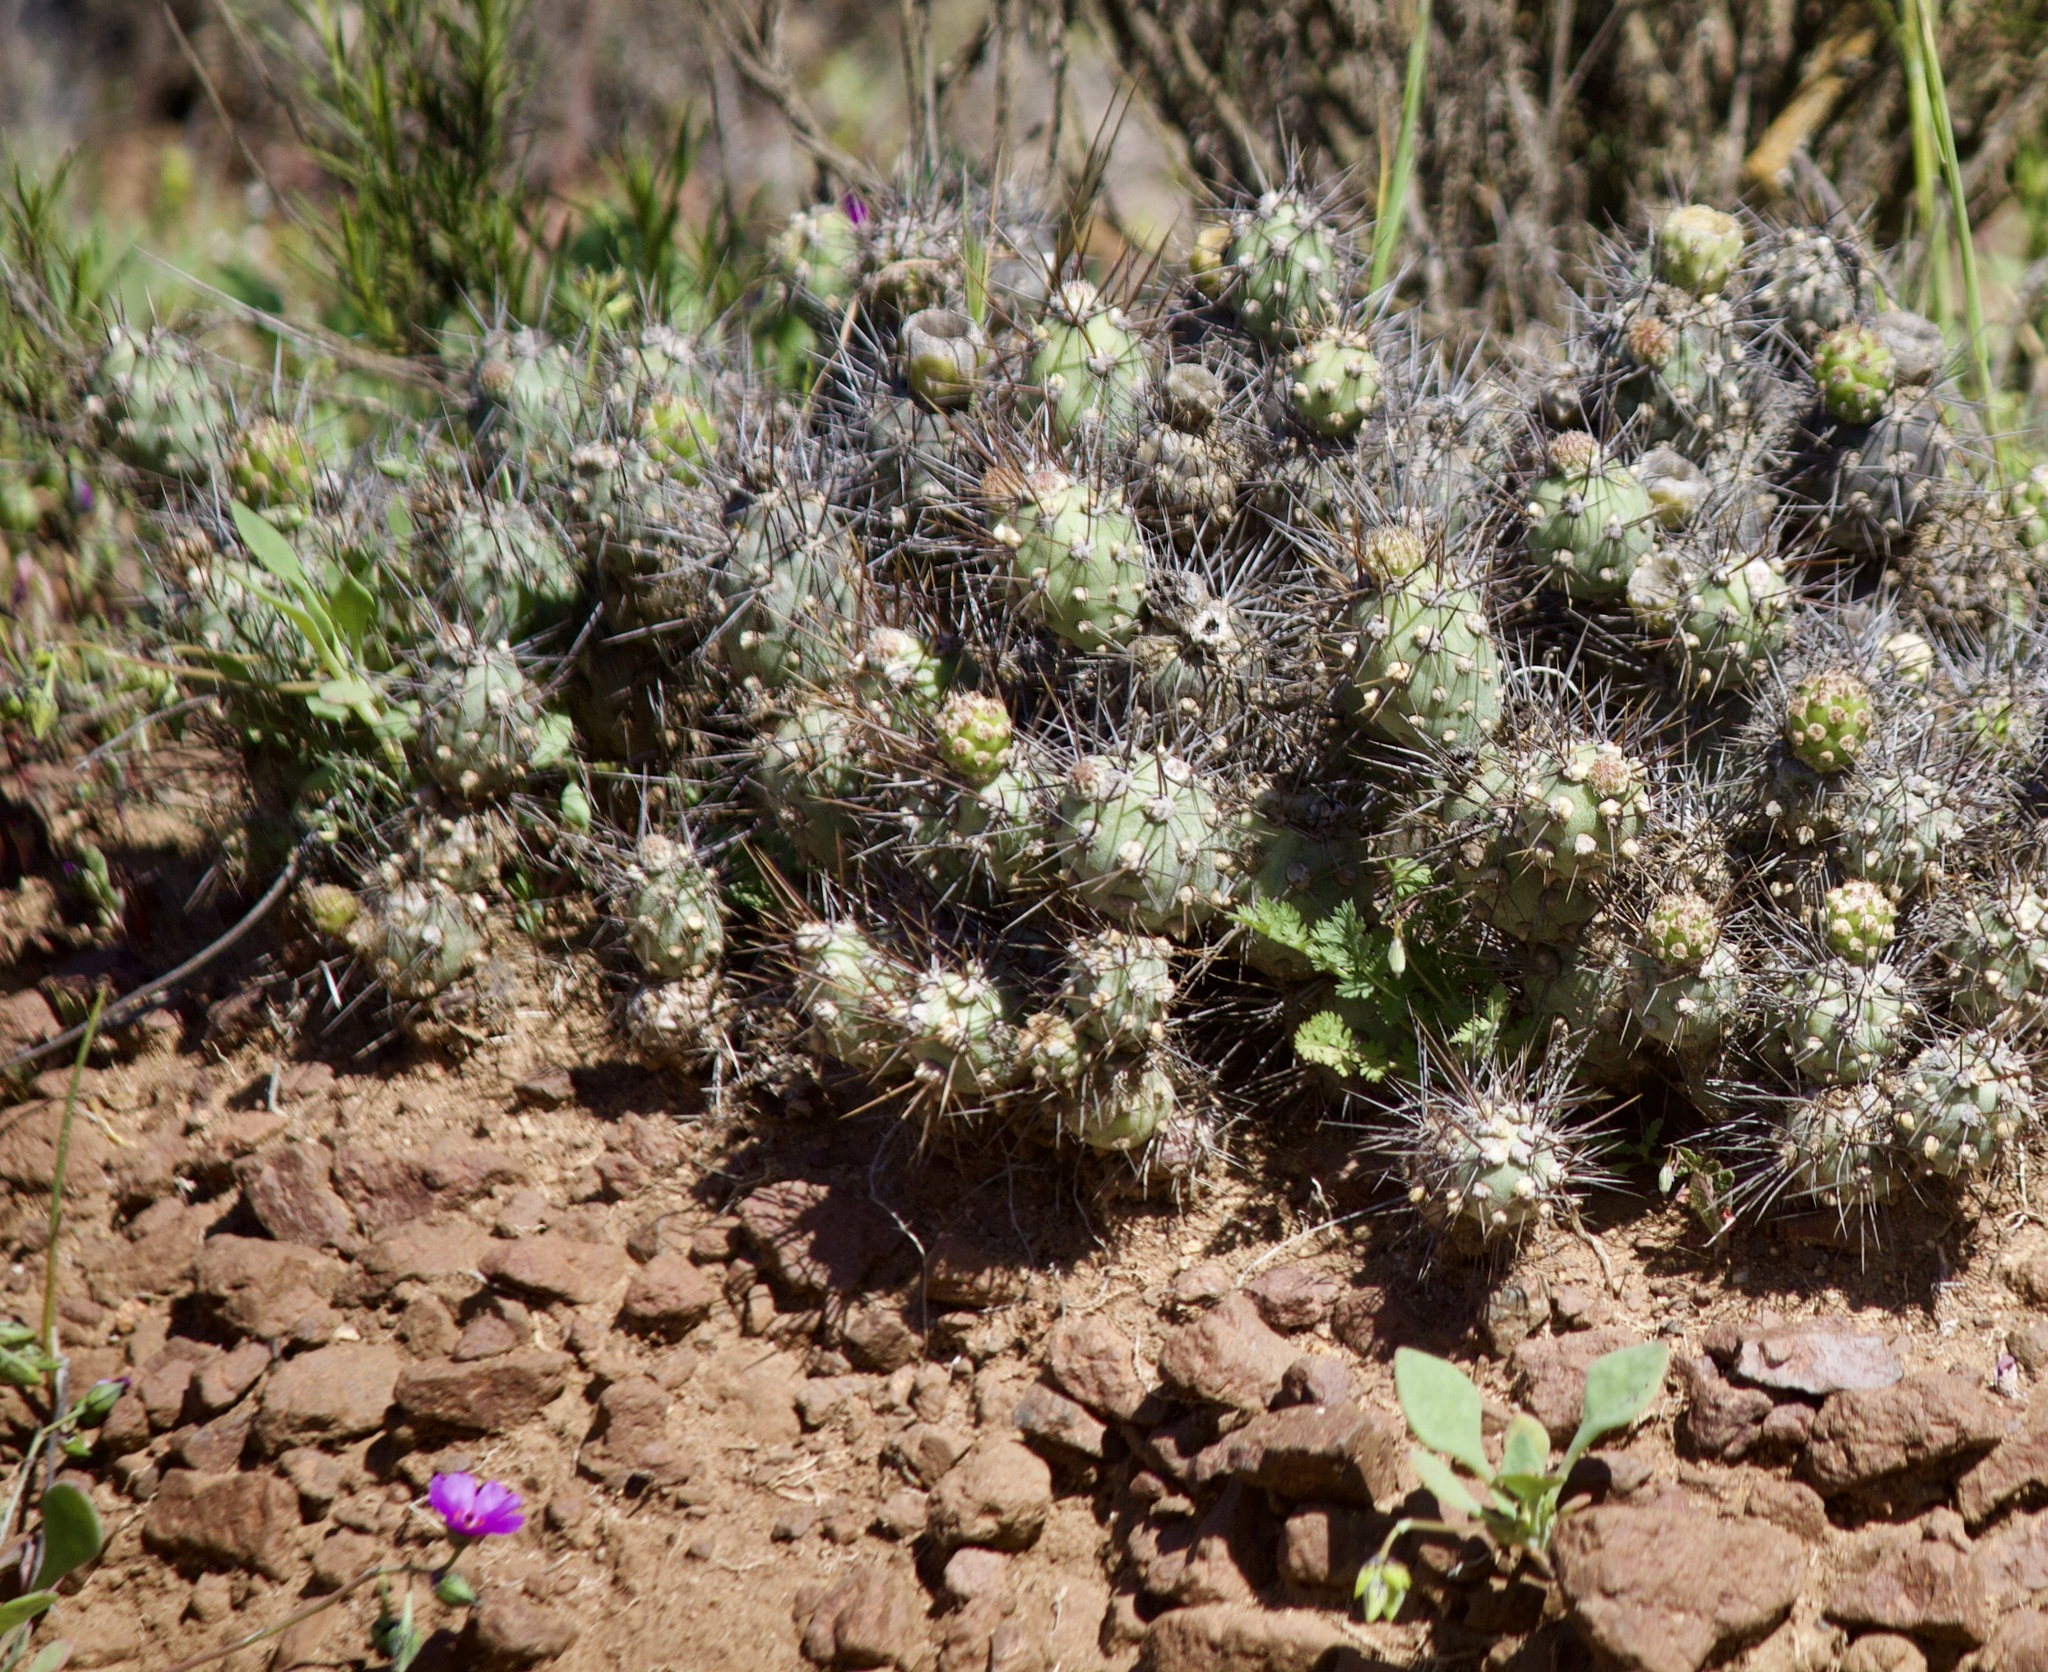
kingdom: Plantae
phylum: Tracheophyta
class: Magnoliopsida
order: Caryophyllales
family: Cactaceae
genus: Cumulopuntia
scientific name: Cumulopuntia leucophaea
